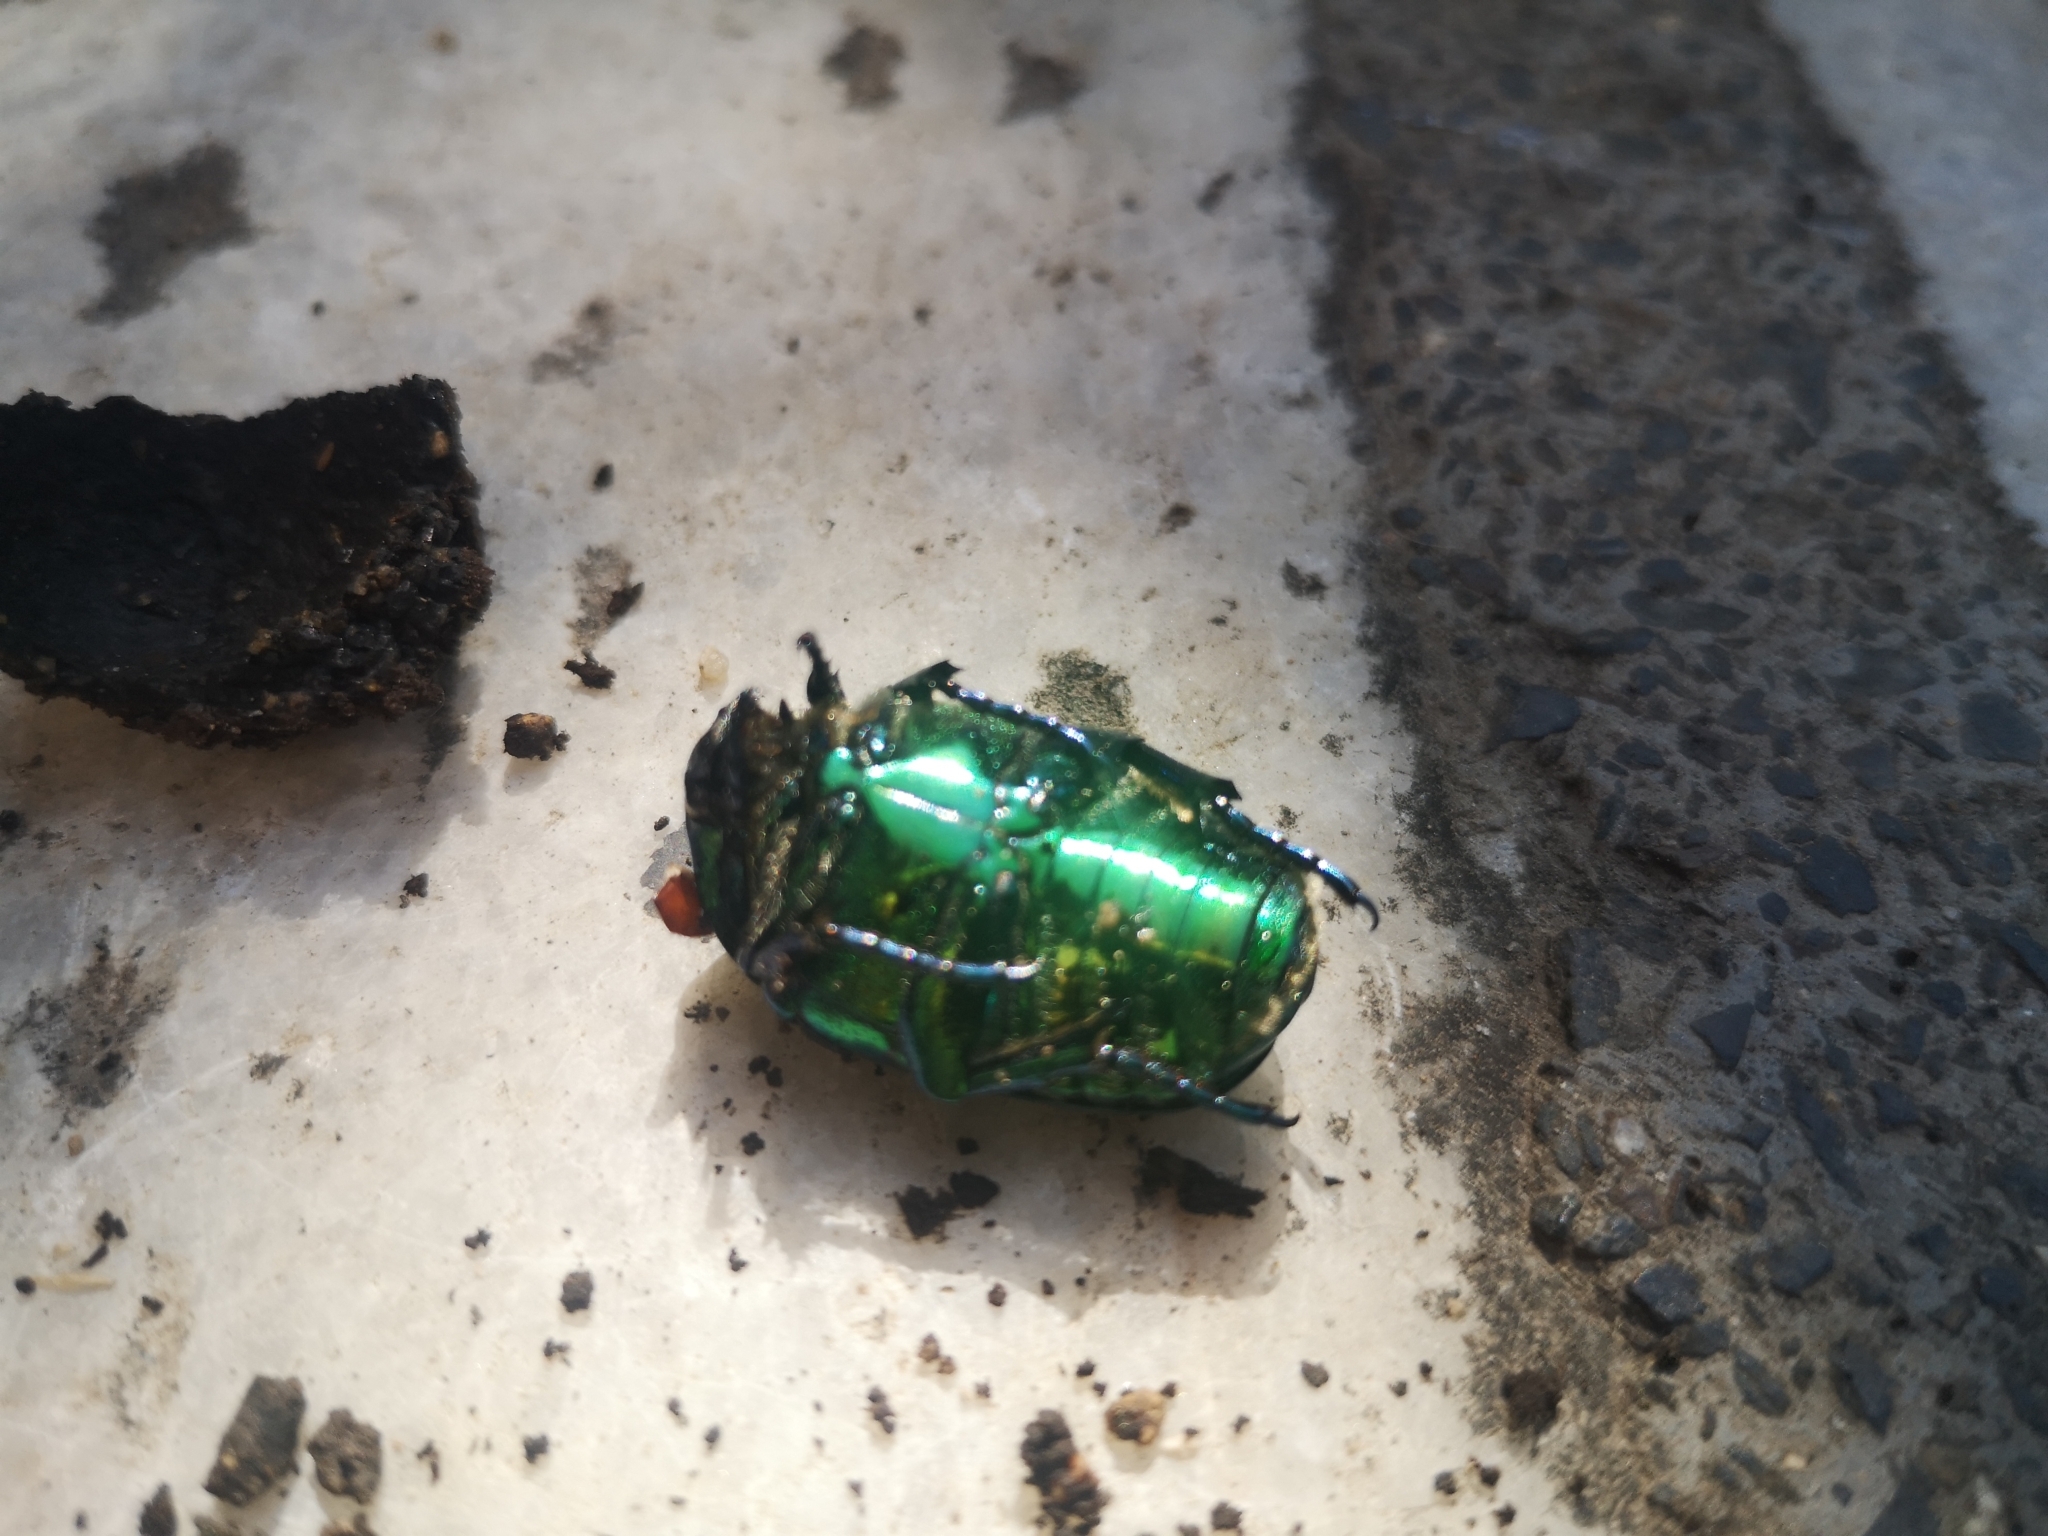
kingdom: Animalia
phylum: Arthropoda
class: Insecta
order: Coleoptera
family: Scarabaeidae
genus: Protaetia
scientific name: Protaetia speciosissima
